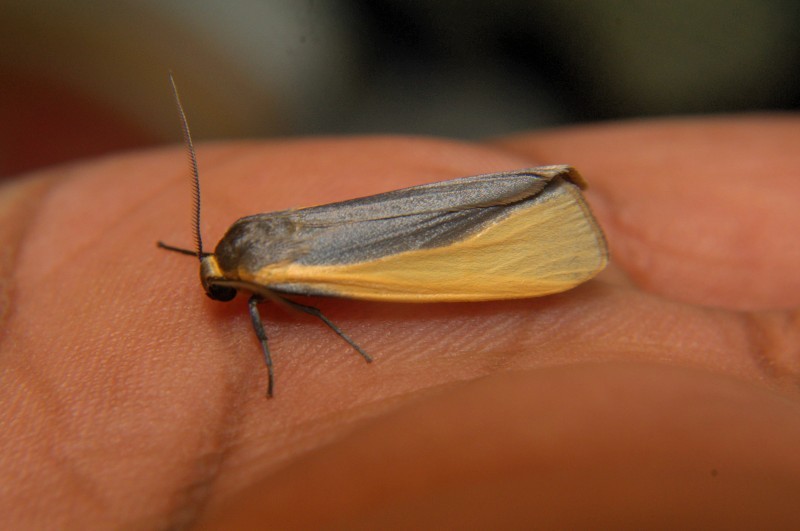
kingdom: Animalia
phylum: Arthropoda
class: Insecta
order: Lepidoptera
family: Erebidae
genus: Hesudra
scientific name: Hesudra divisa
